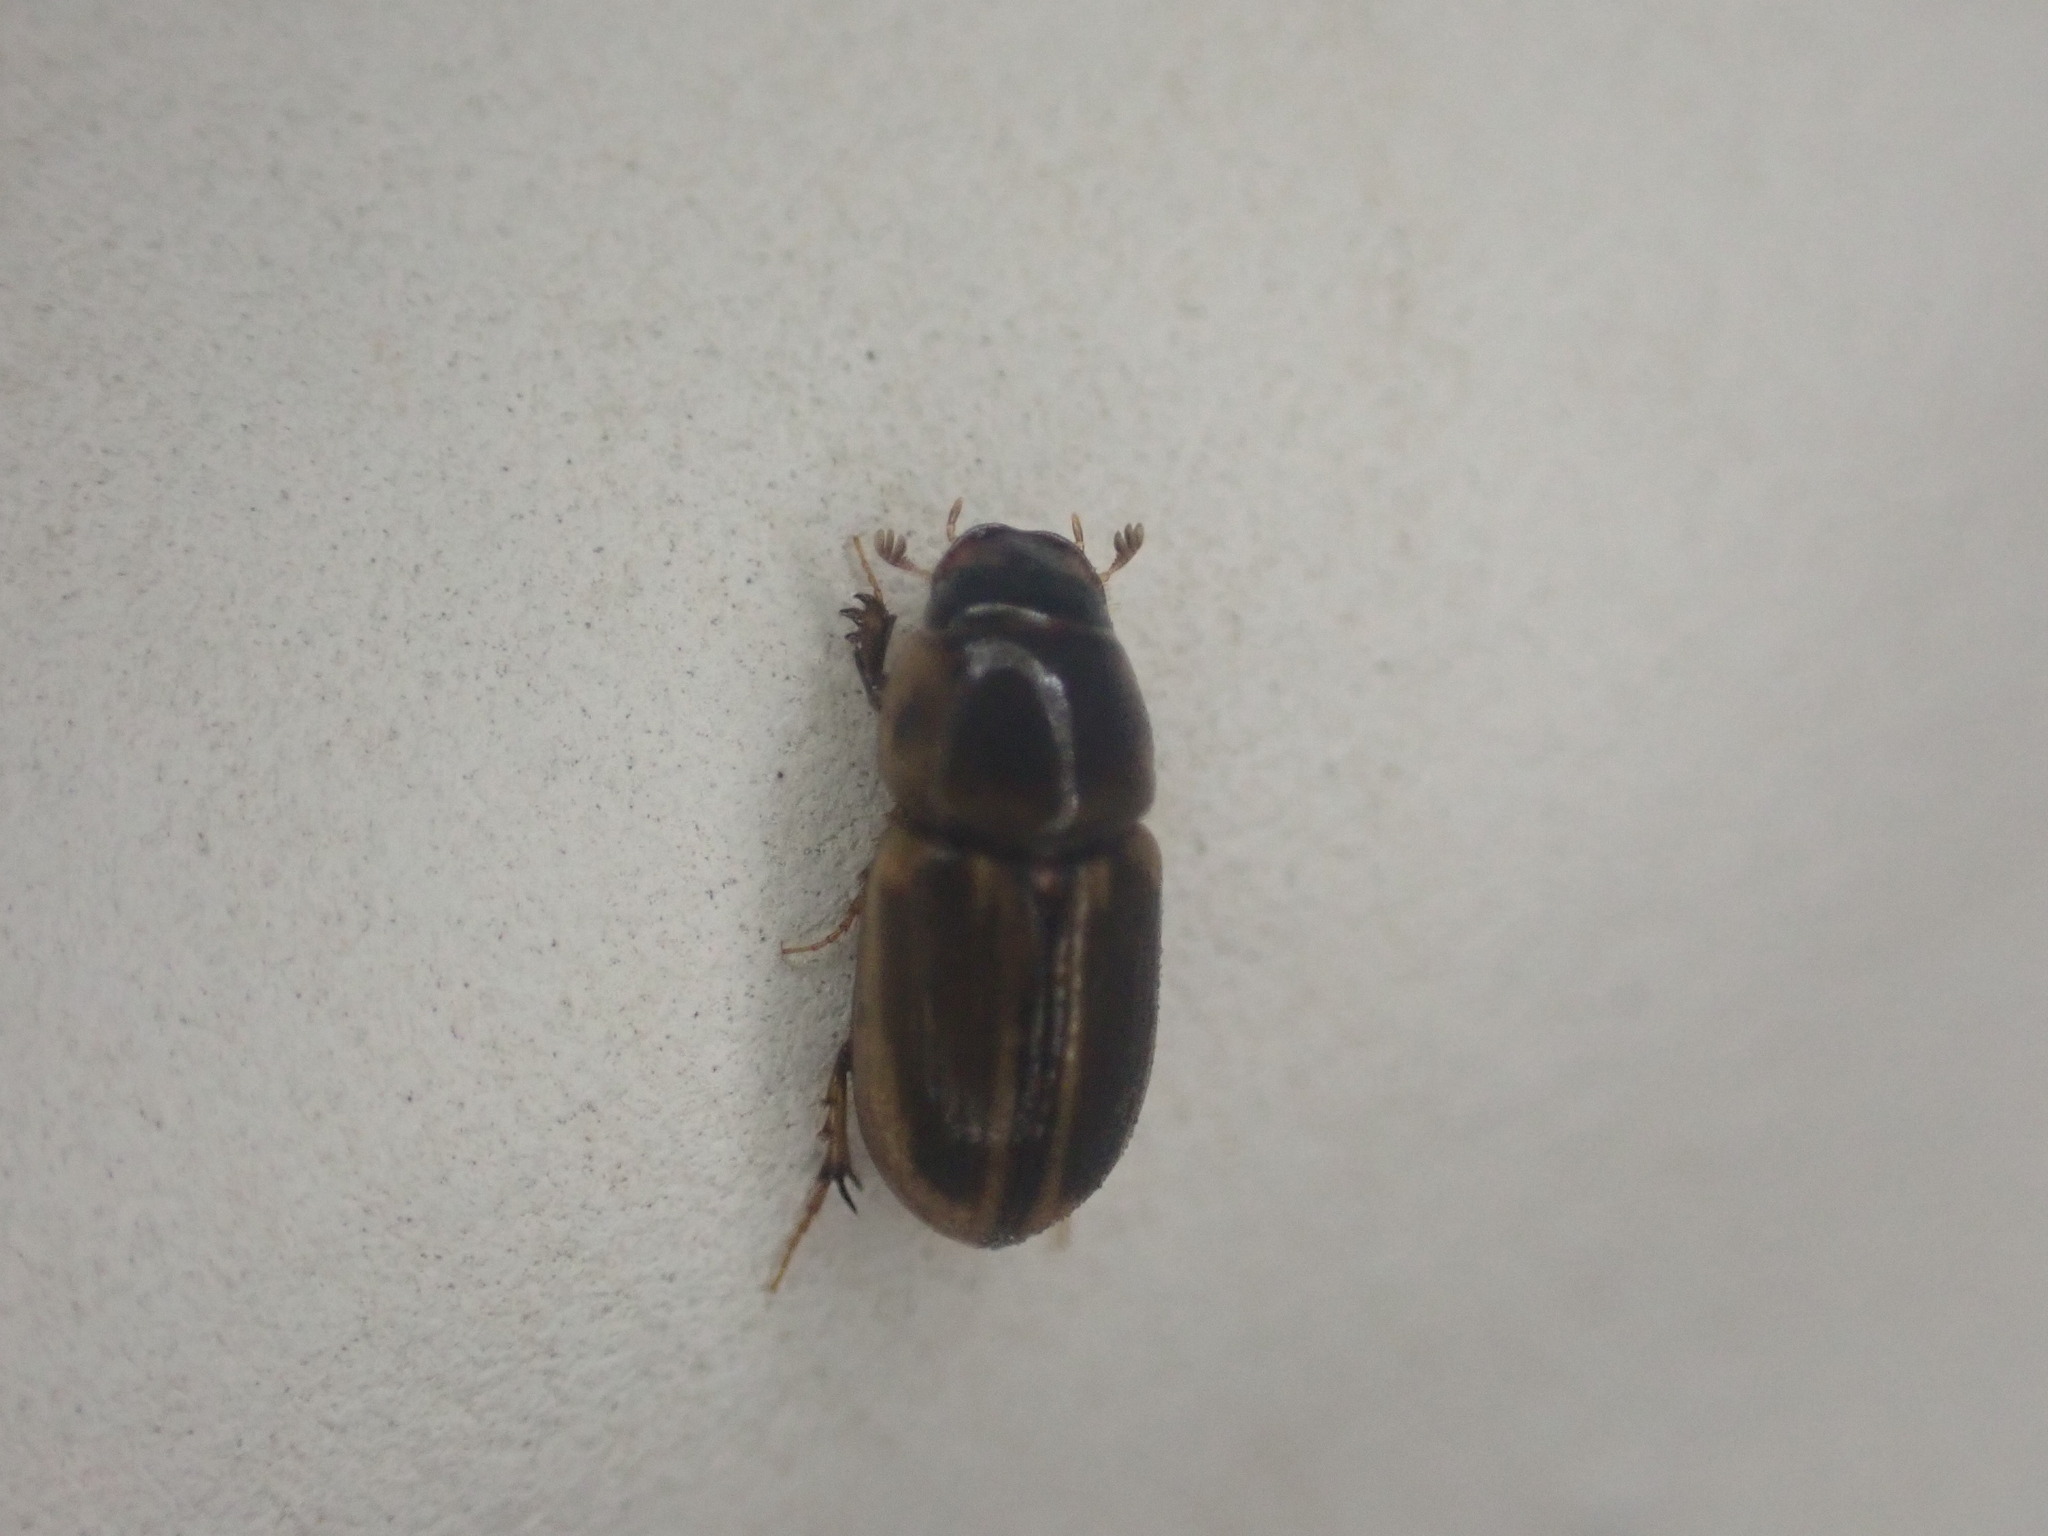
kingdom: Animalia
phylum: Arthropoda
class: Insecta
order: Coleoptera
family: Scarabaeidae
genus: Labarrus
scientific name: Labarrus lividus
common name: Scarab beetle
